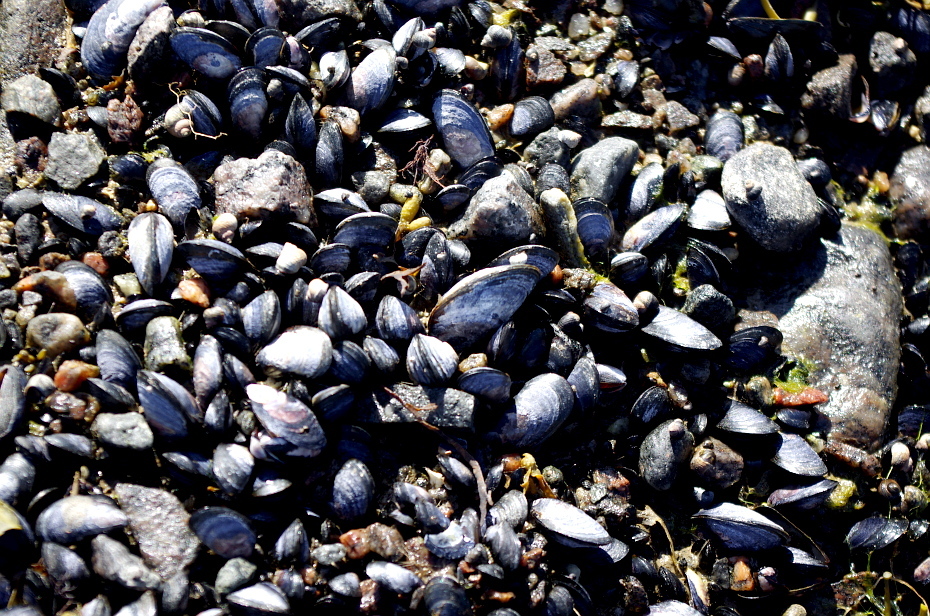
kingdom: Animalia
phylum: Mollusca
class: Bivalvia
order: Mytilida
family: Mytilidae
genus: Mytilus
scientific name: Mytilus edulis
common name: Blue mussel
